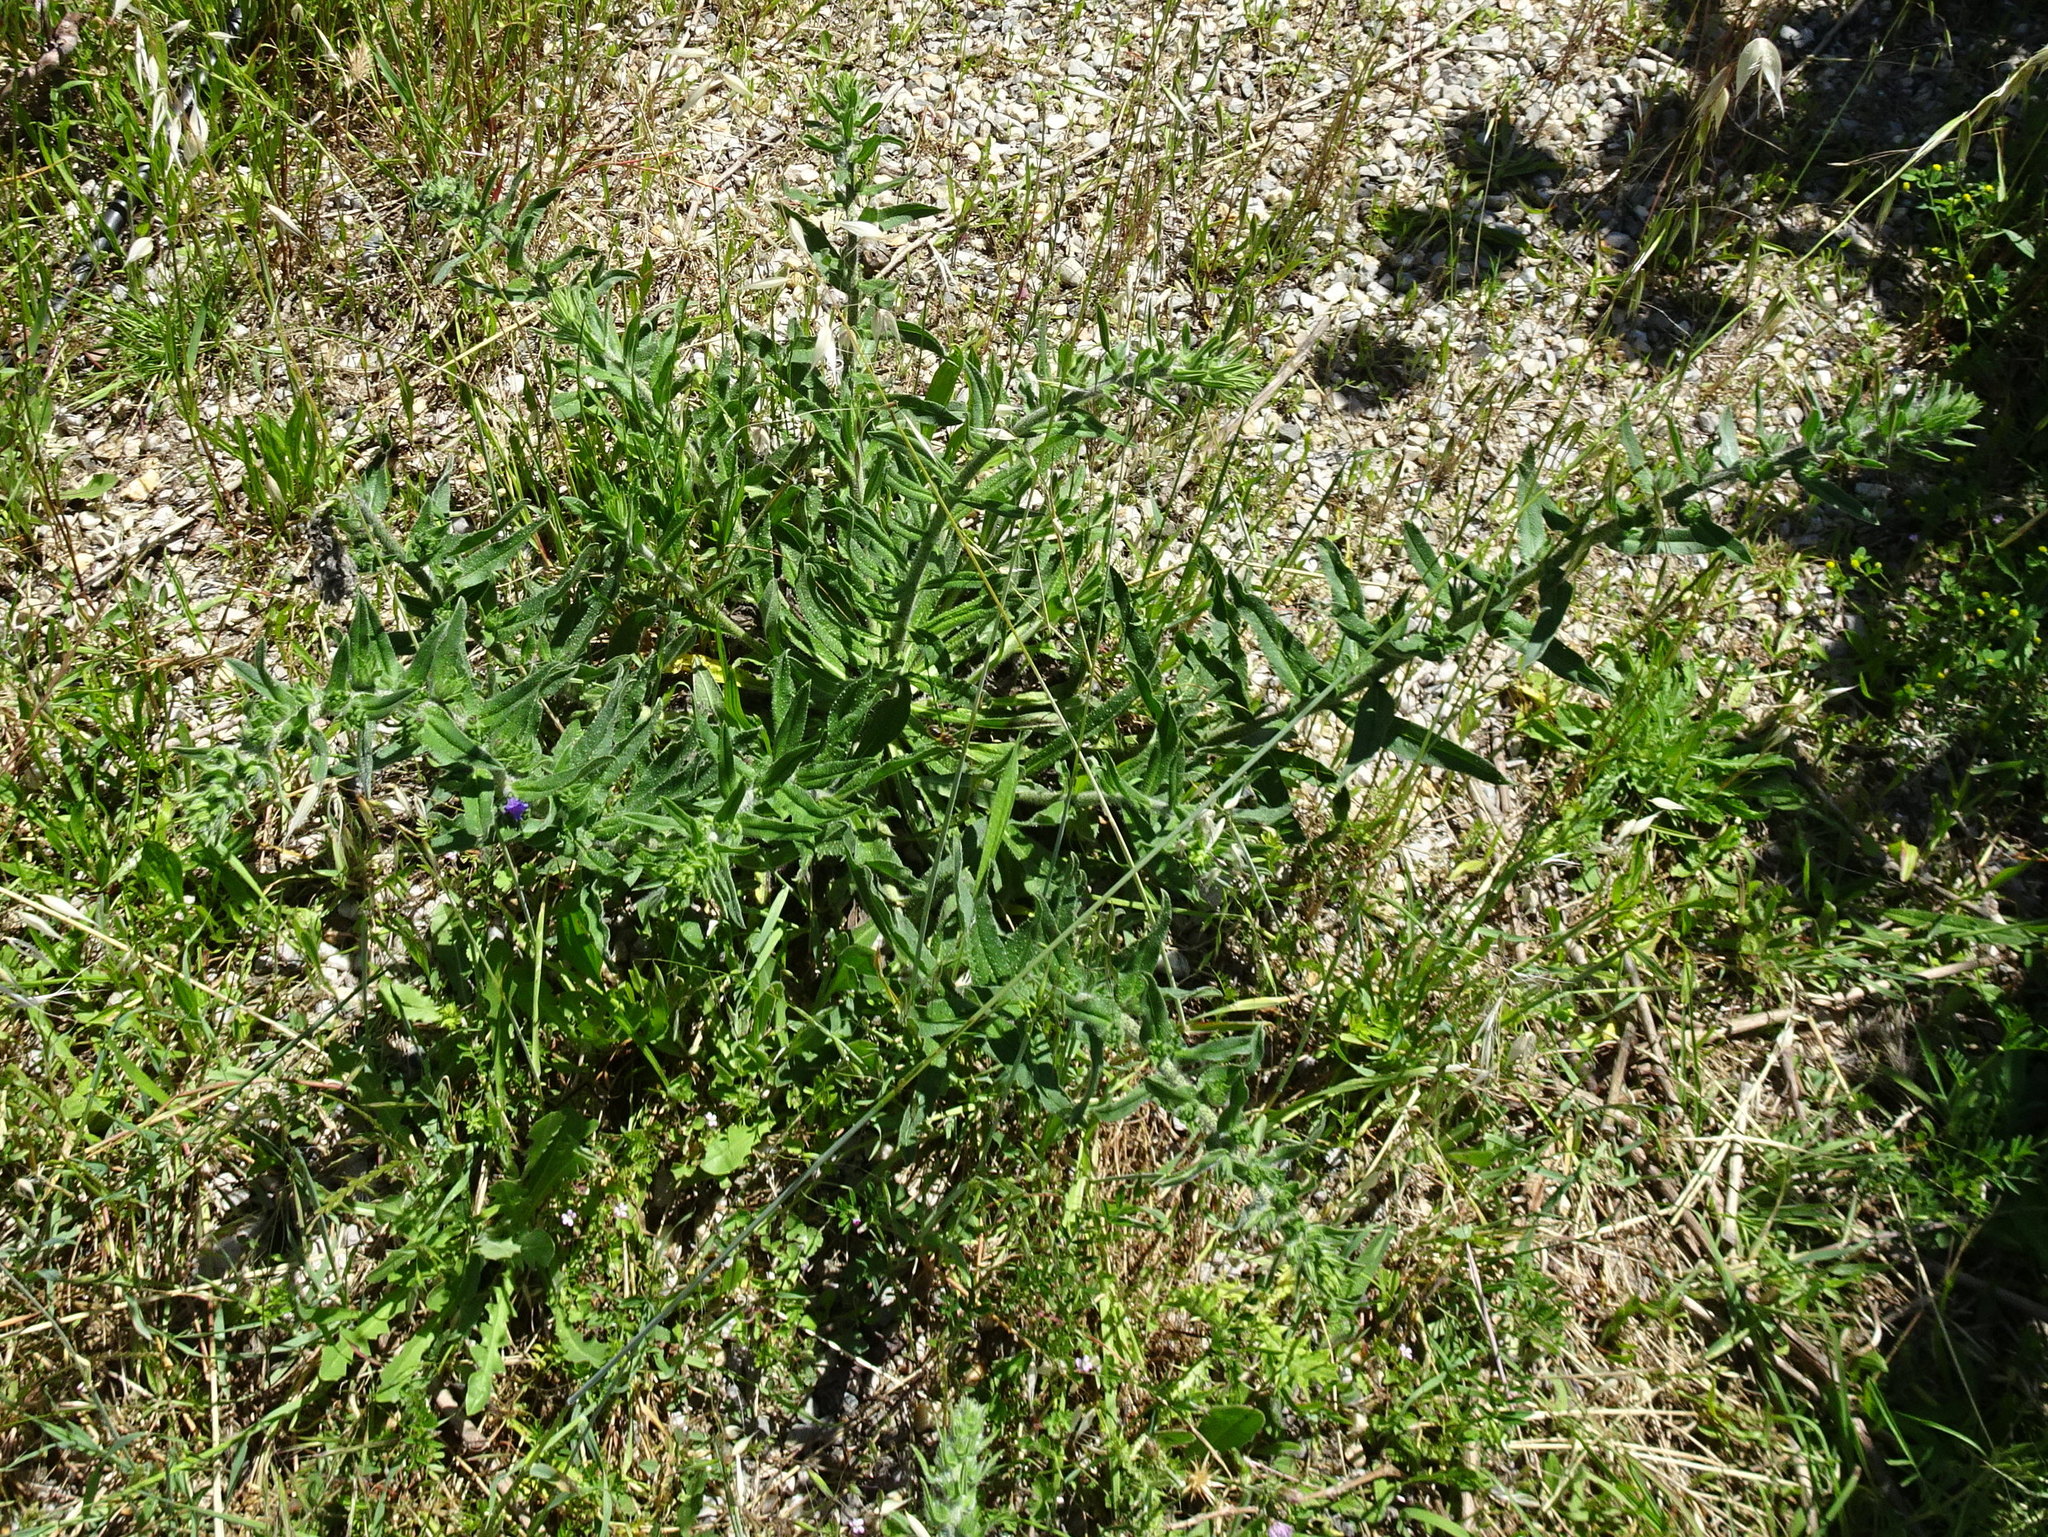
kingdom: Plantae
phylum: Tracheophyta
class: Magnoliopsida
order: Boraginales
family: Boraginaceae
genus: Echium
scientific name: Echium vulgare
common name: Common viper's bugloss
